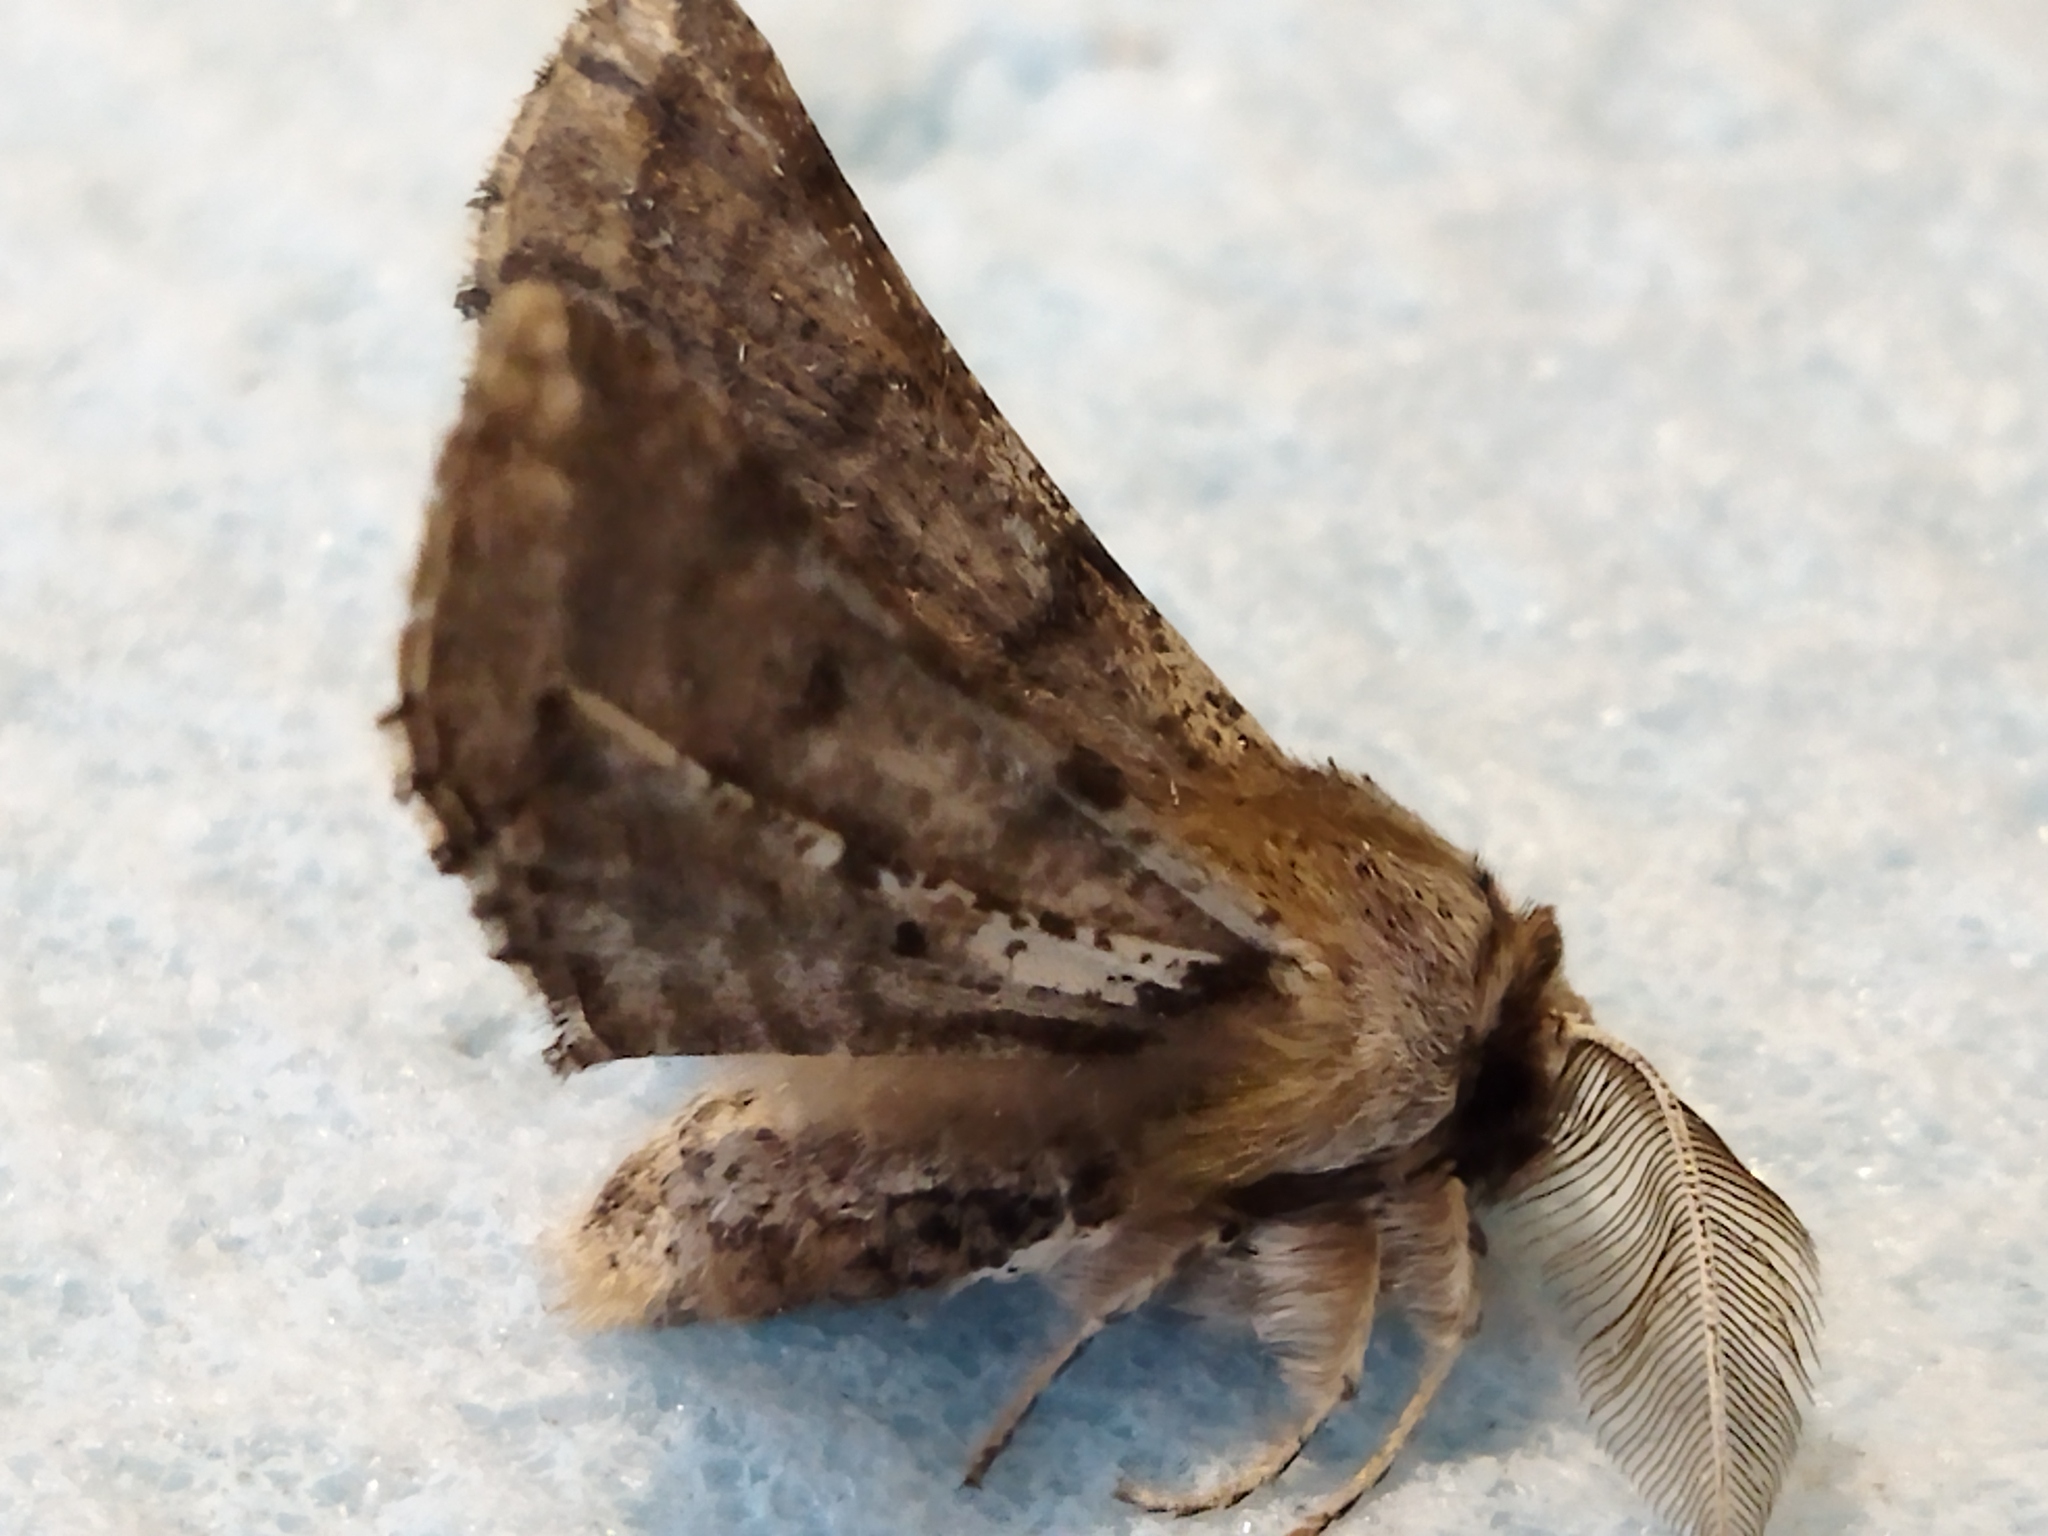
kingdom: Animalia
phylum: Arthropoda
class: Insecta
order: Lepidoptera
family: Geometridae
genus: Apochima
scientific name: Apochima flabellaria
